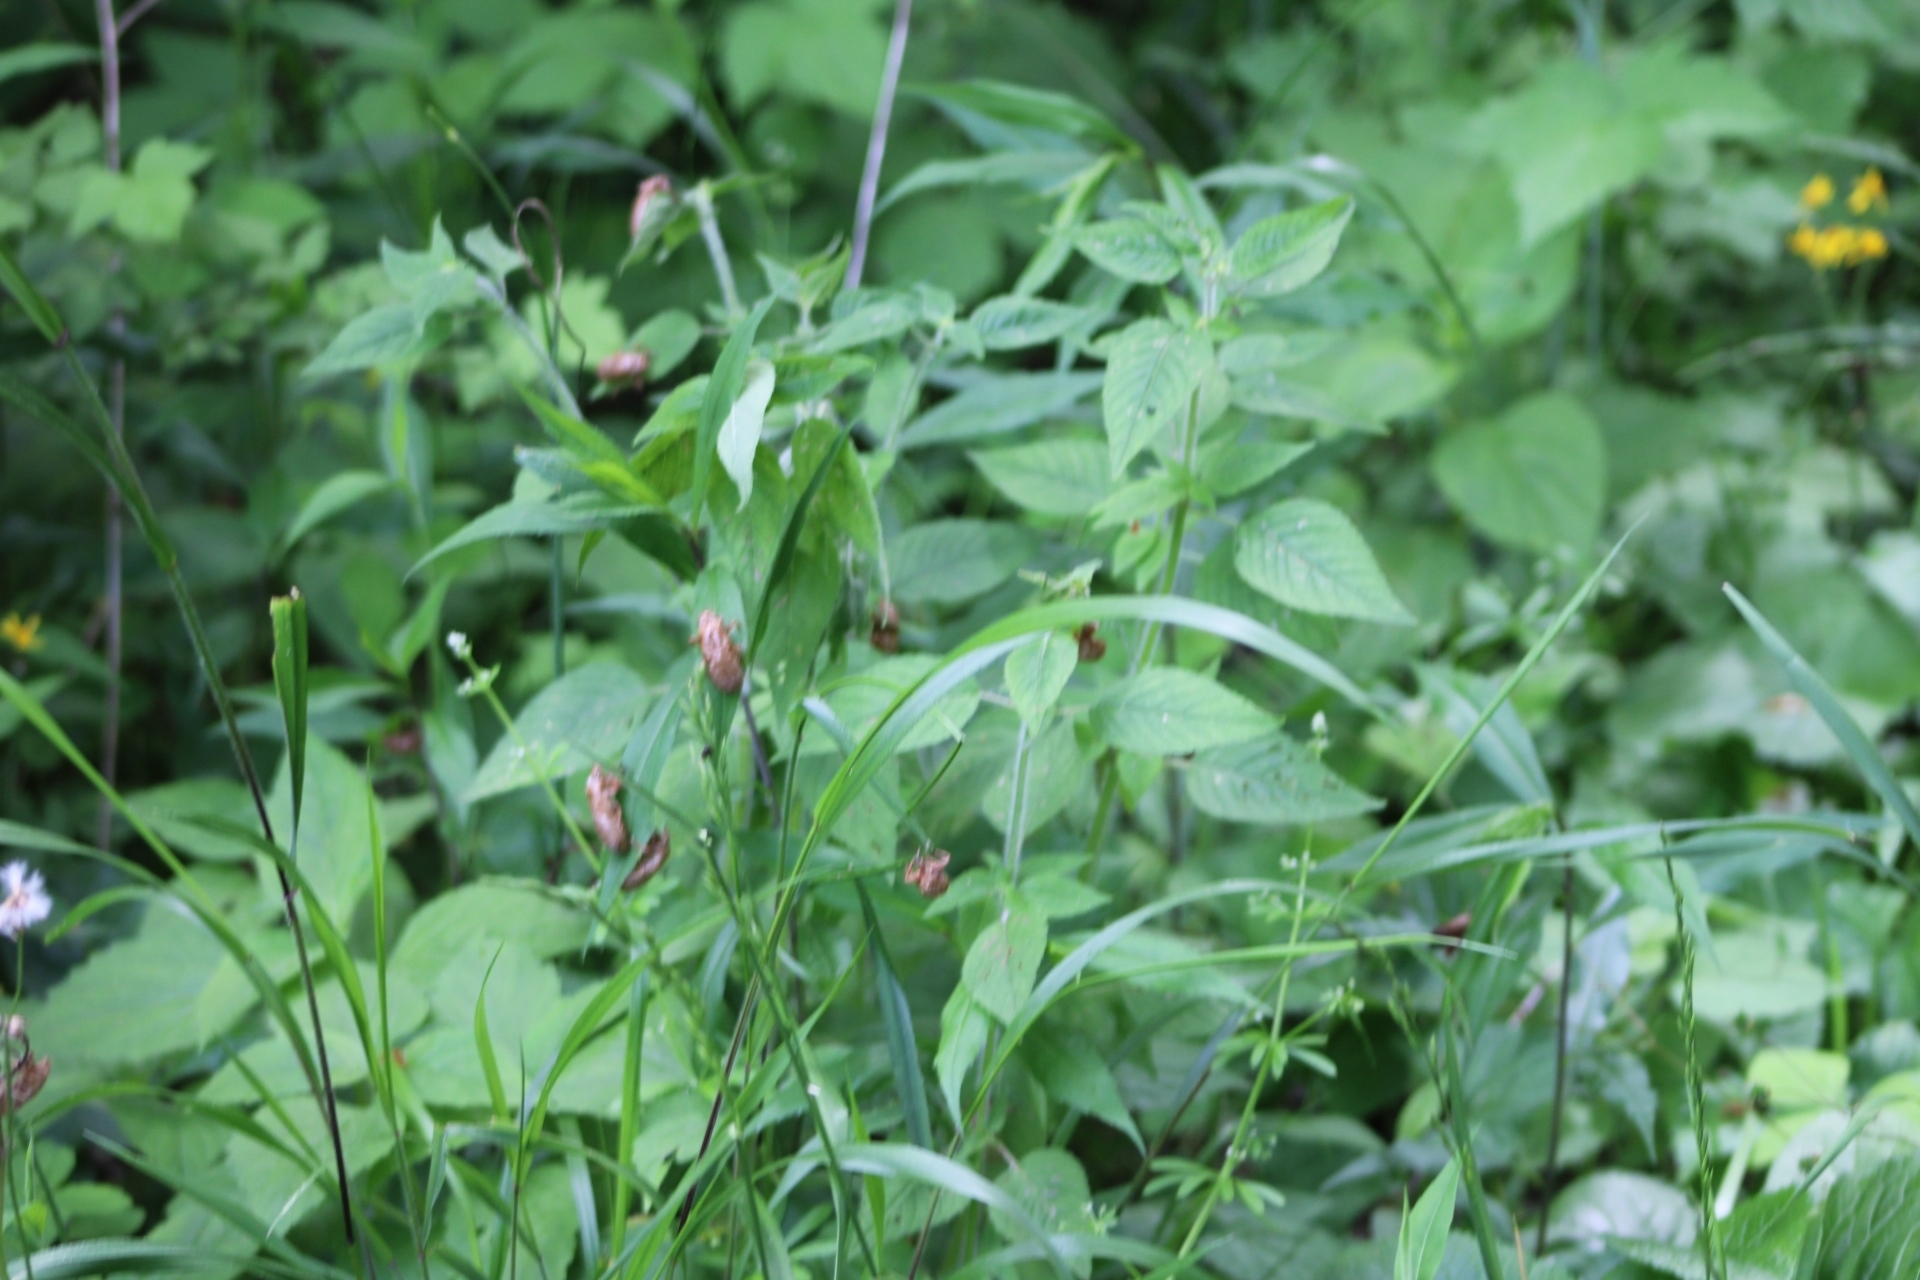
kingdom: Animalia
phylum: Arthropoda
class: Insecta
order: Hemiptera
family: Cicadidae
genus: Magicicada
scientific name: Magicicada
